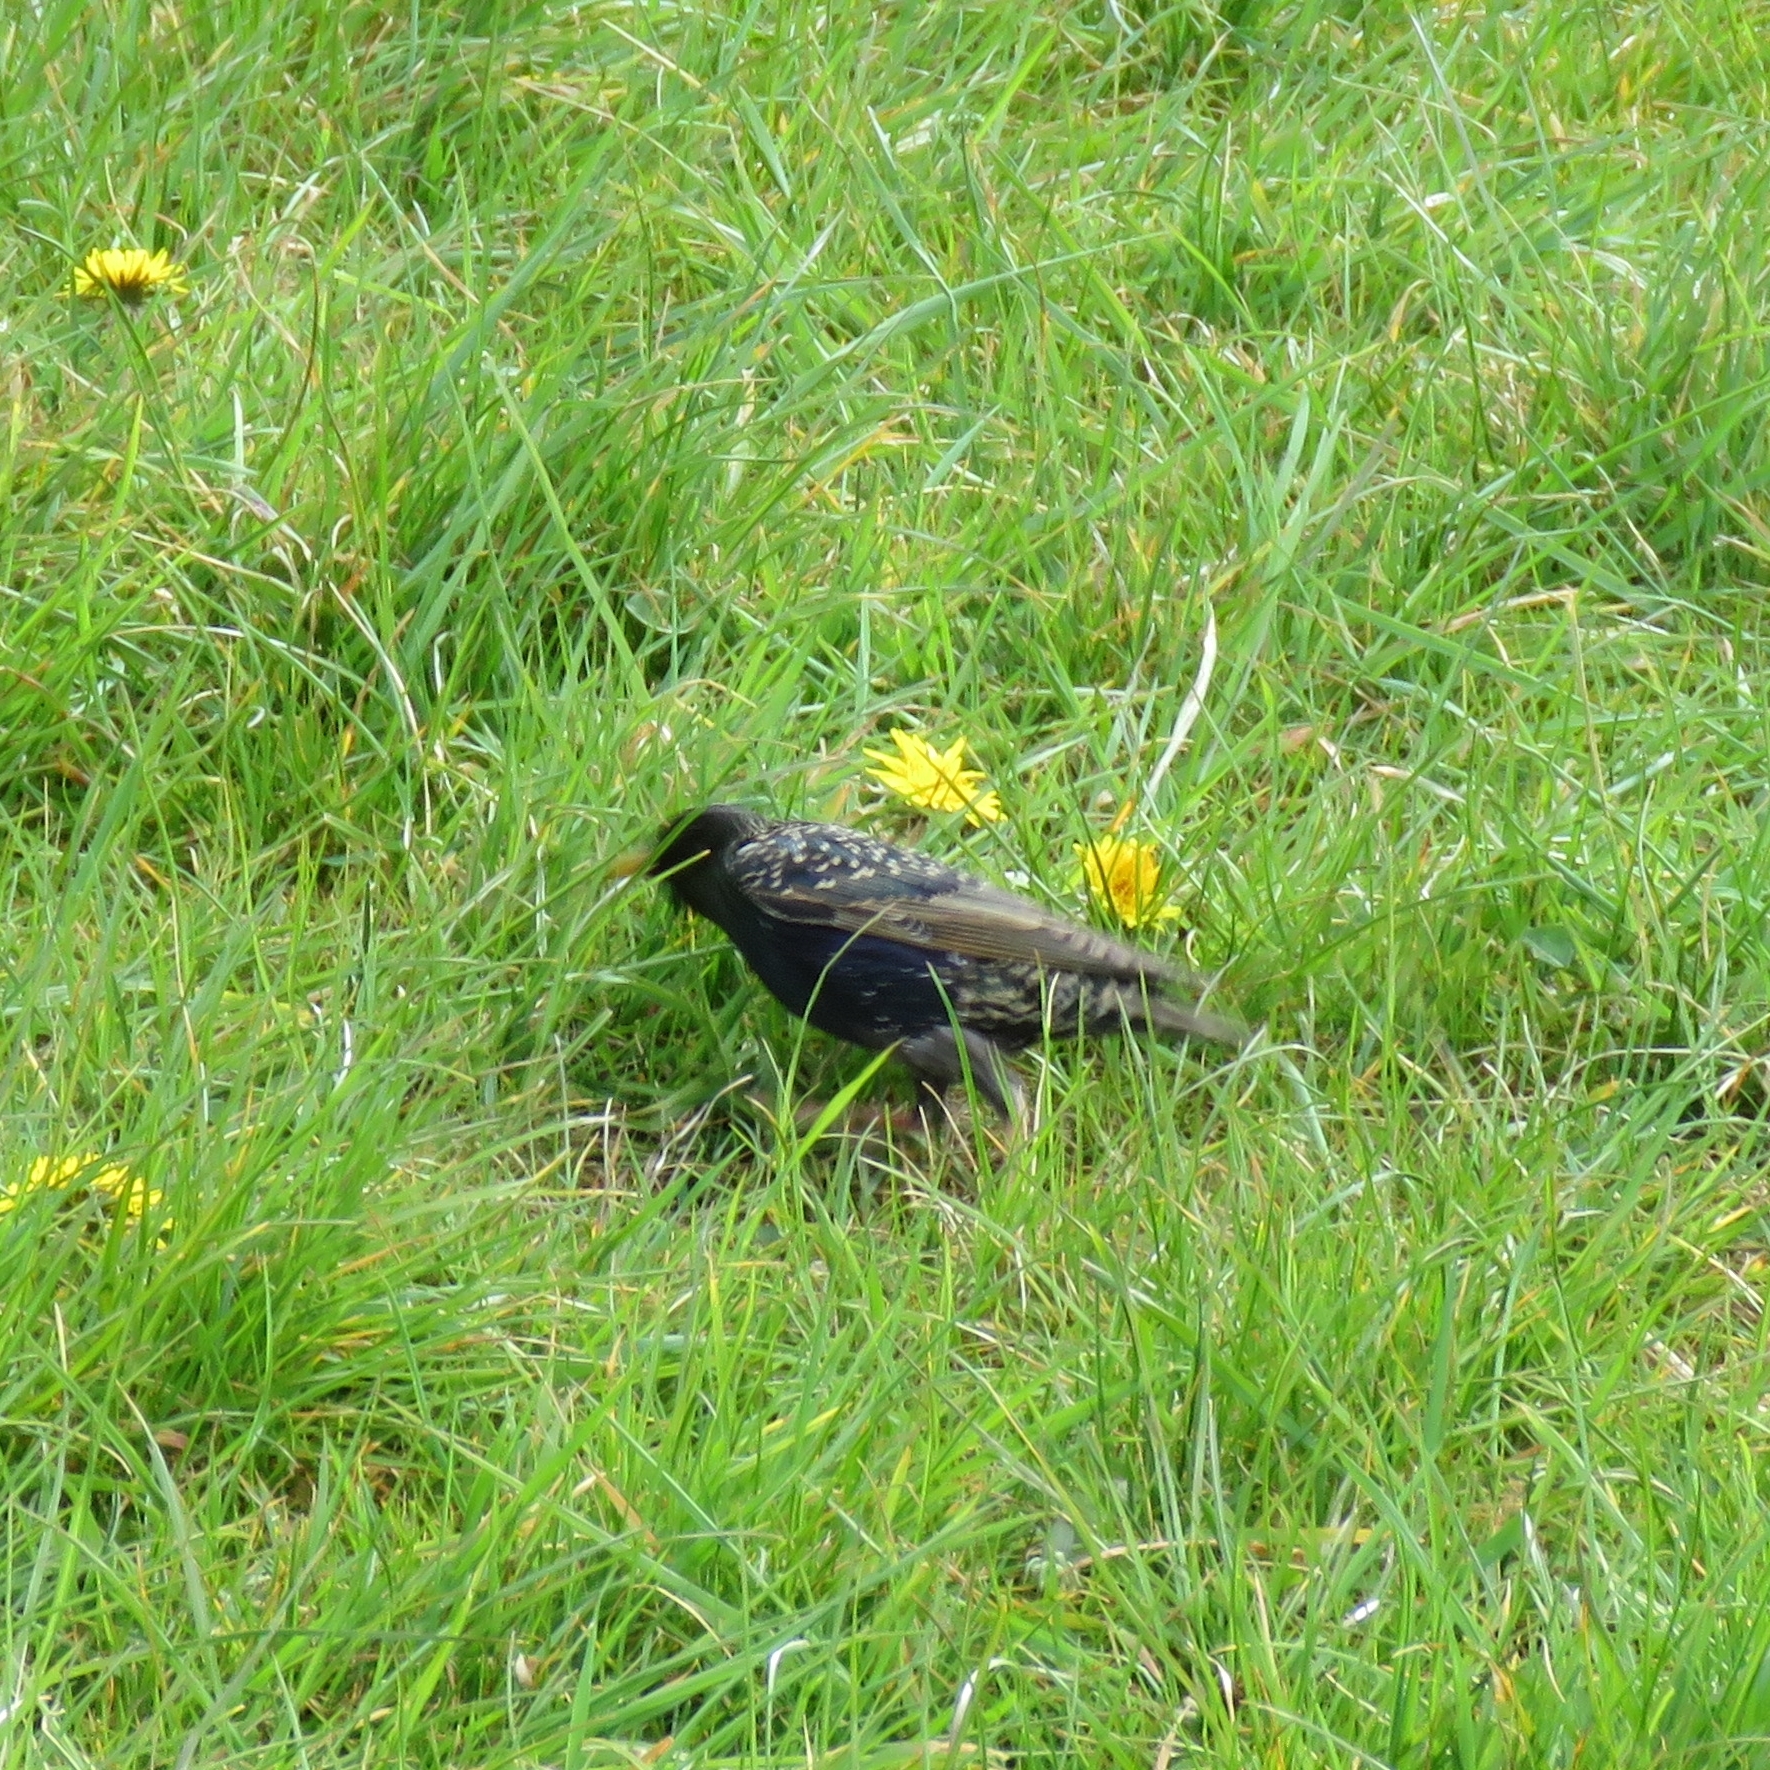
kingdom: Animalia
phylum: Chordata
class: Aves
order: Passeriformes
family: Sturnidae
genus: Sturnus
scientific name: Sturnus vulgaris
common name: Common starling
